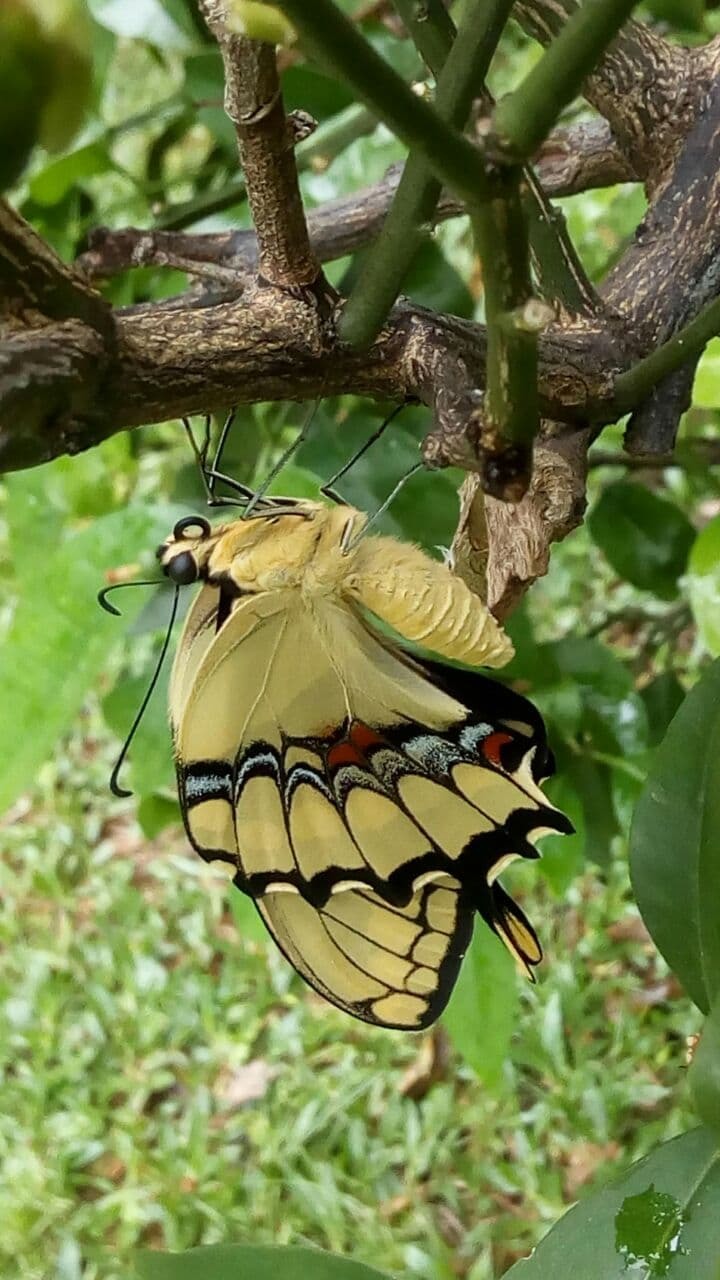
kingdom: Animalia
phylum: Arthropoda
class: Insecta
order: Lepidoptera
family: Papilionidae
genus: Papilio
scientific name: Papilio thoas
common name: King swallowtail
